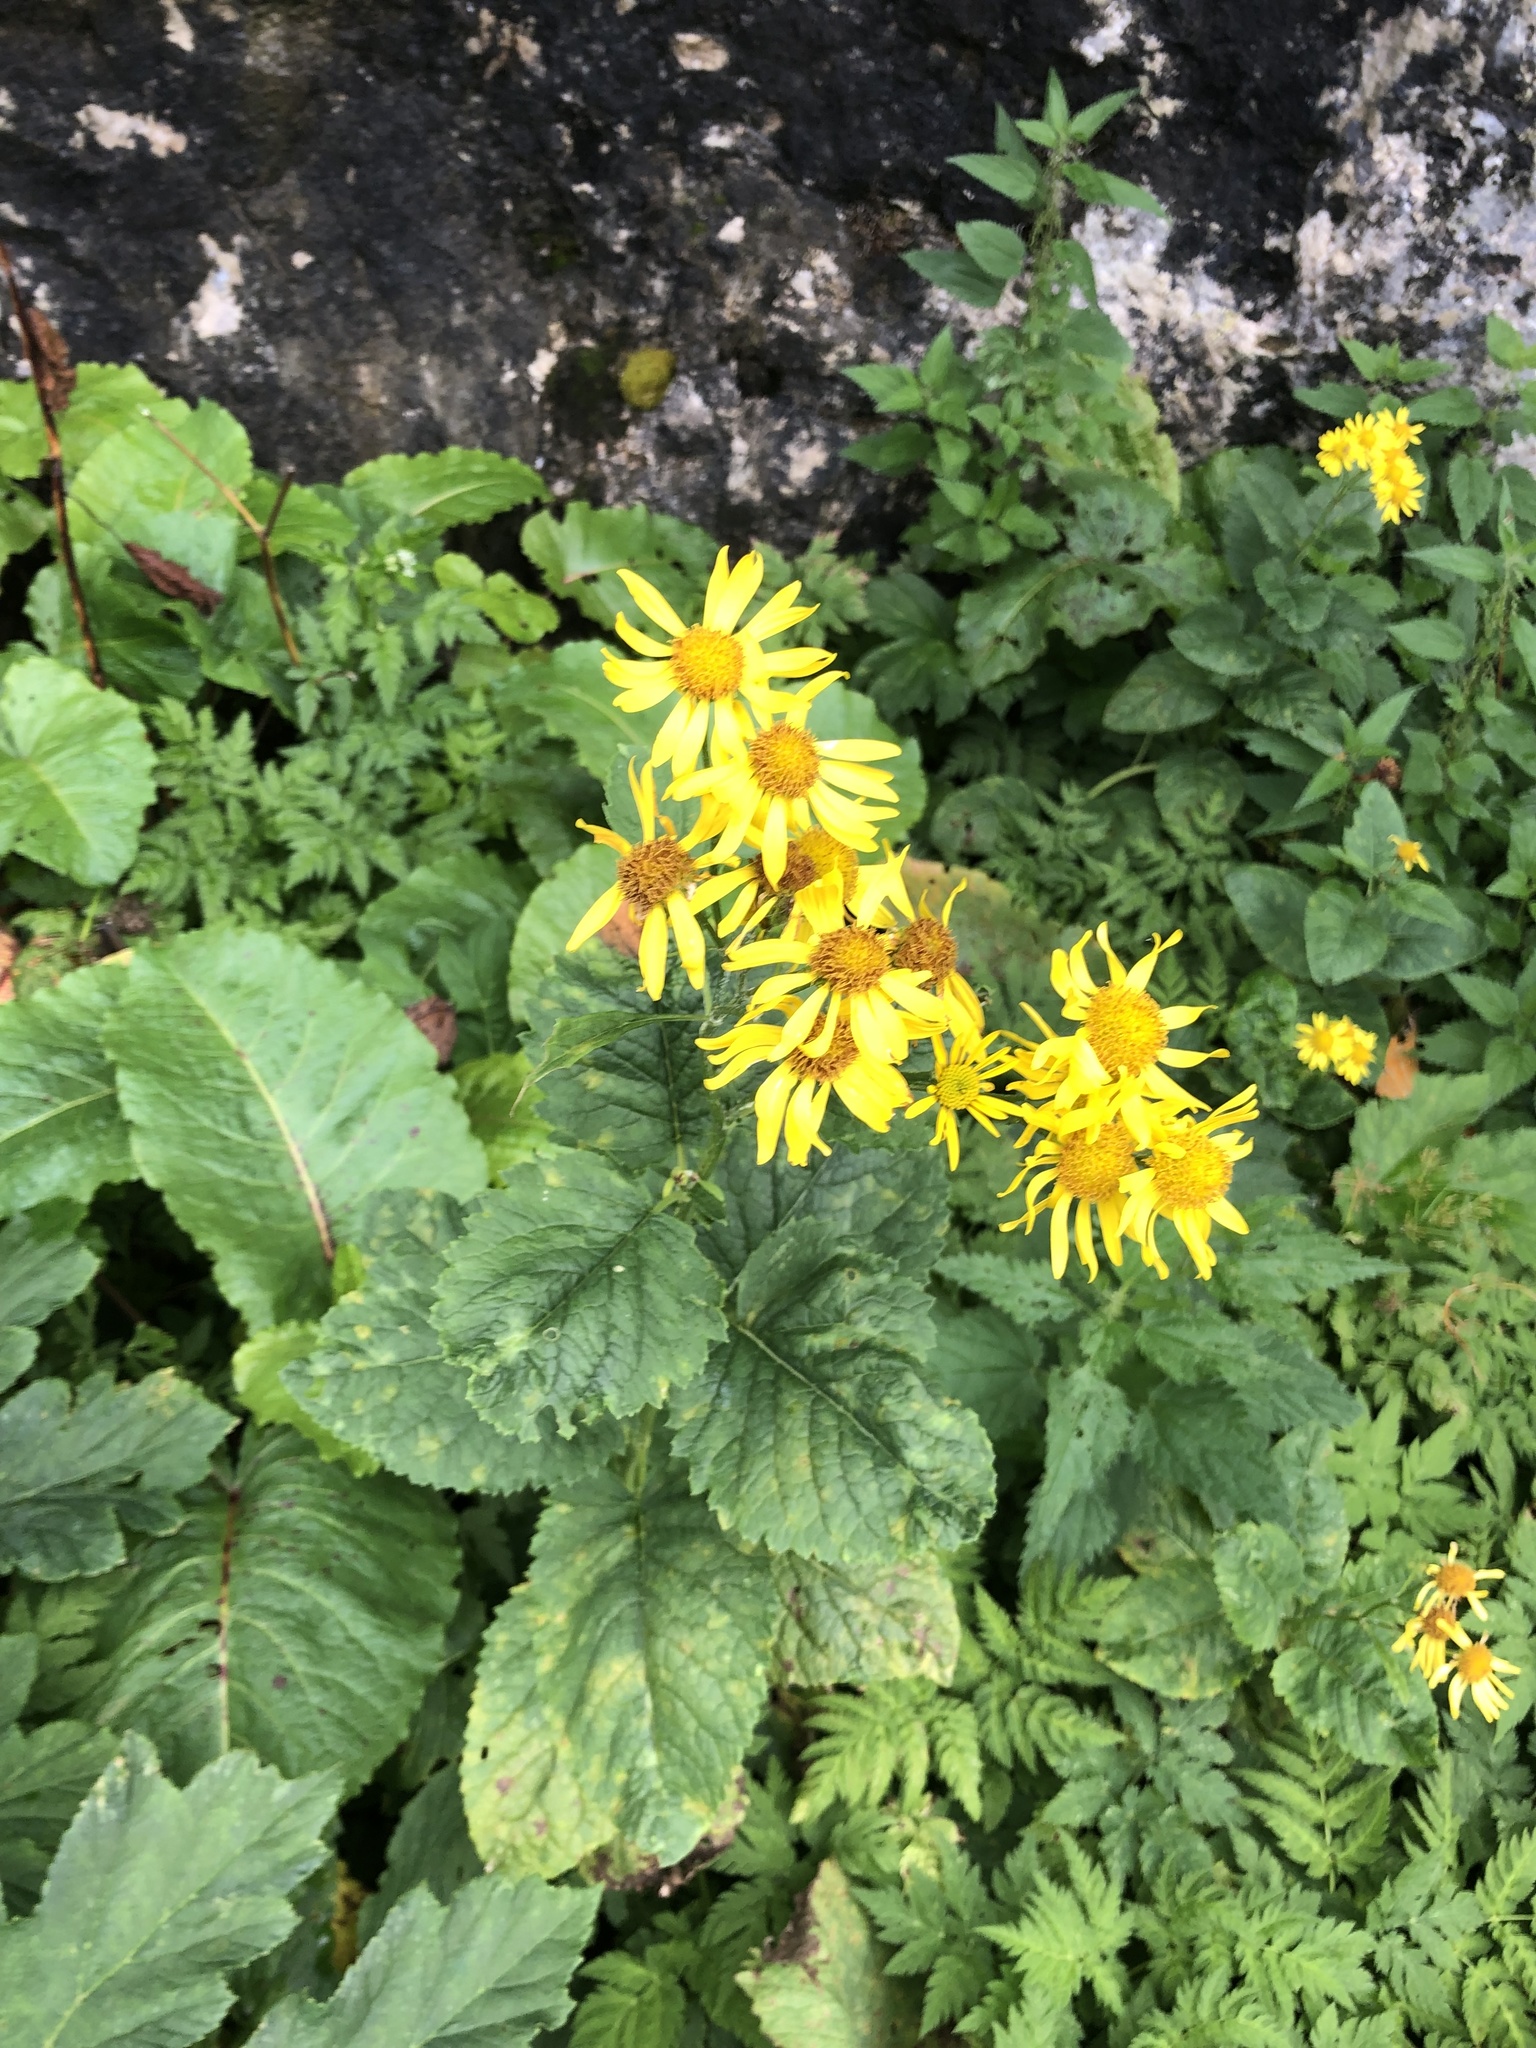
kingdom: Plantae
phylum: Tracheophyta
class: Magnoliopsida
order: Asterales
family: Asteraceae
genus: Jacobaea
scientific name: Jacobaea alpina
